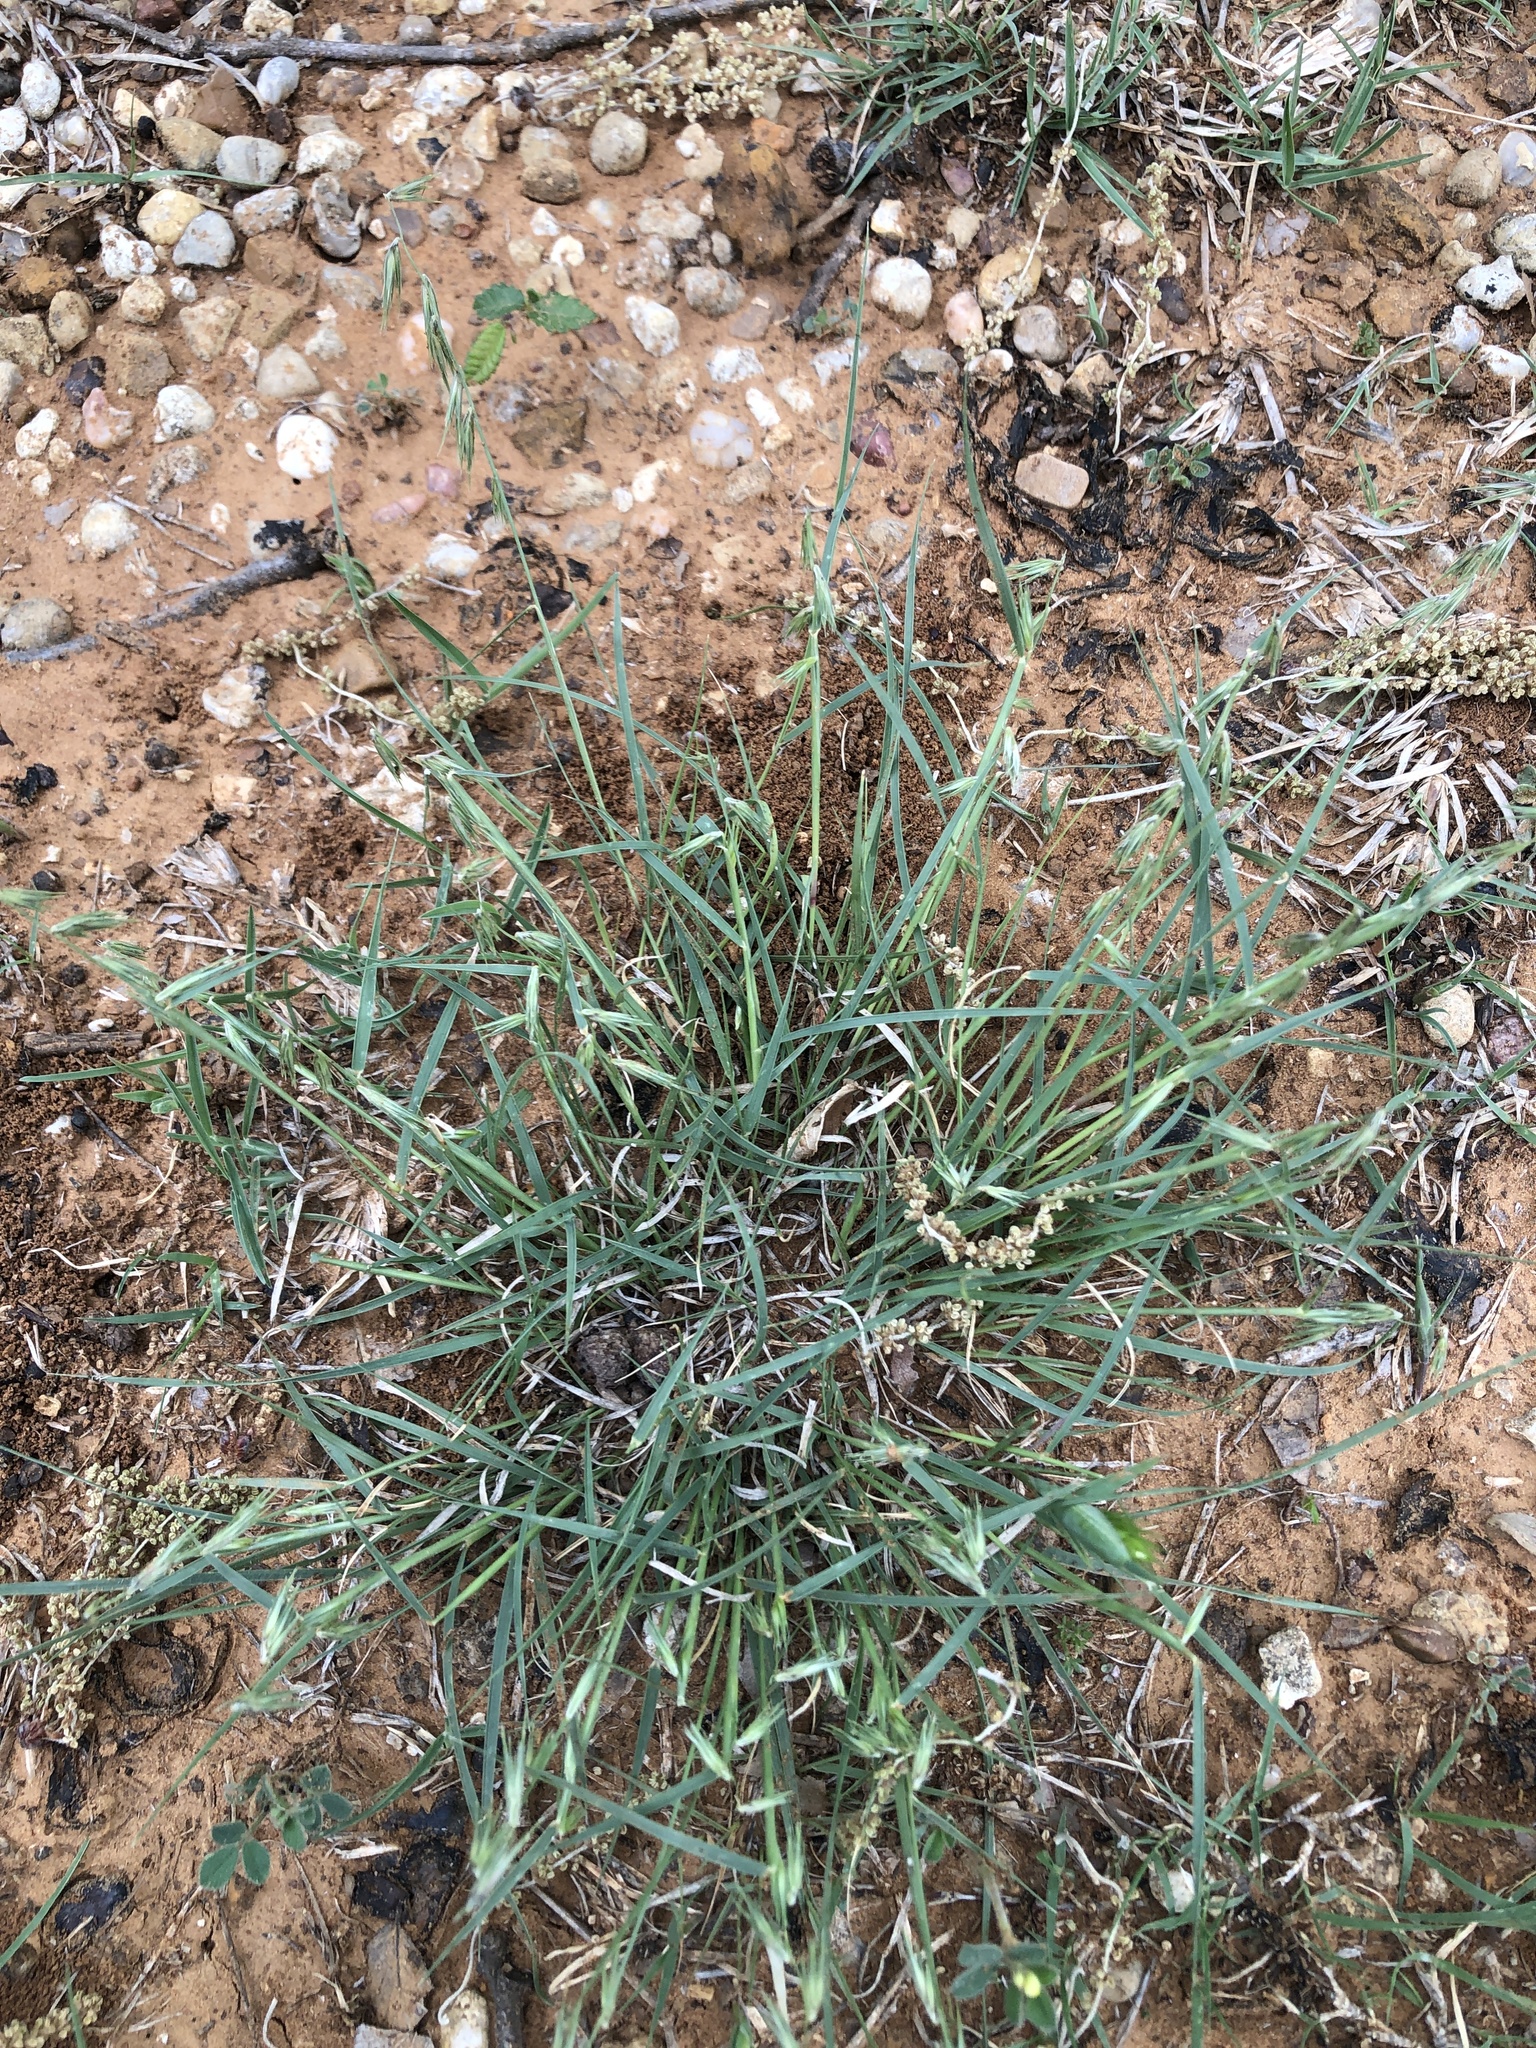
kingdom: Plantae
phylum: Tracheophyta
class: Liliopsida
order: Poales
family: Poaceae
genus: Bouteloua
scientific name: Bouteloua rigidiseta
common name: Texas grama
